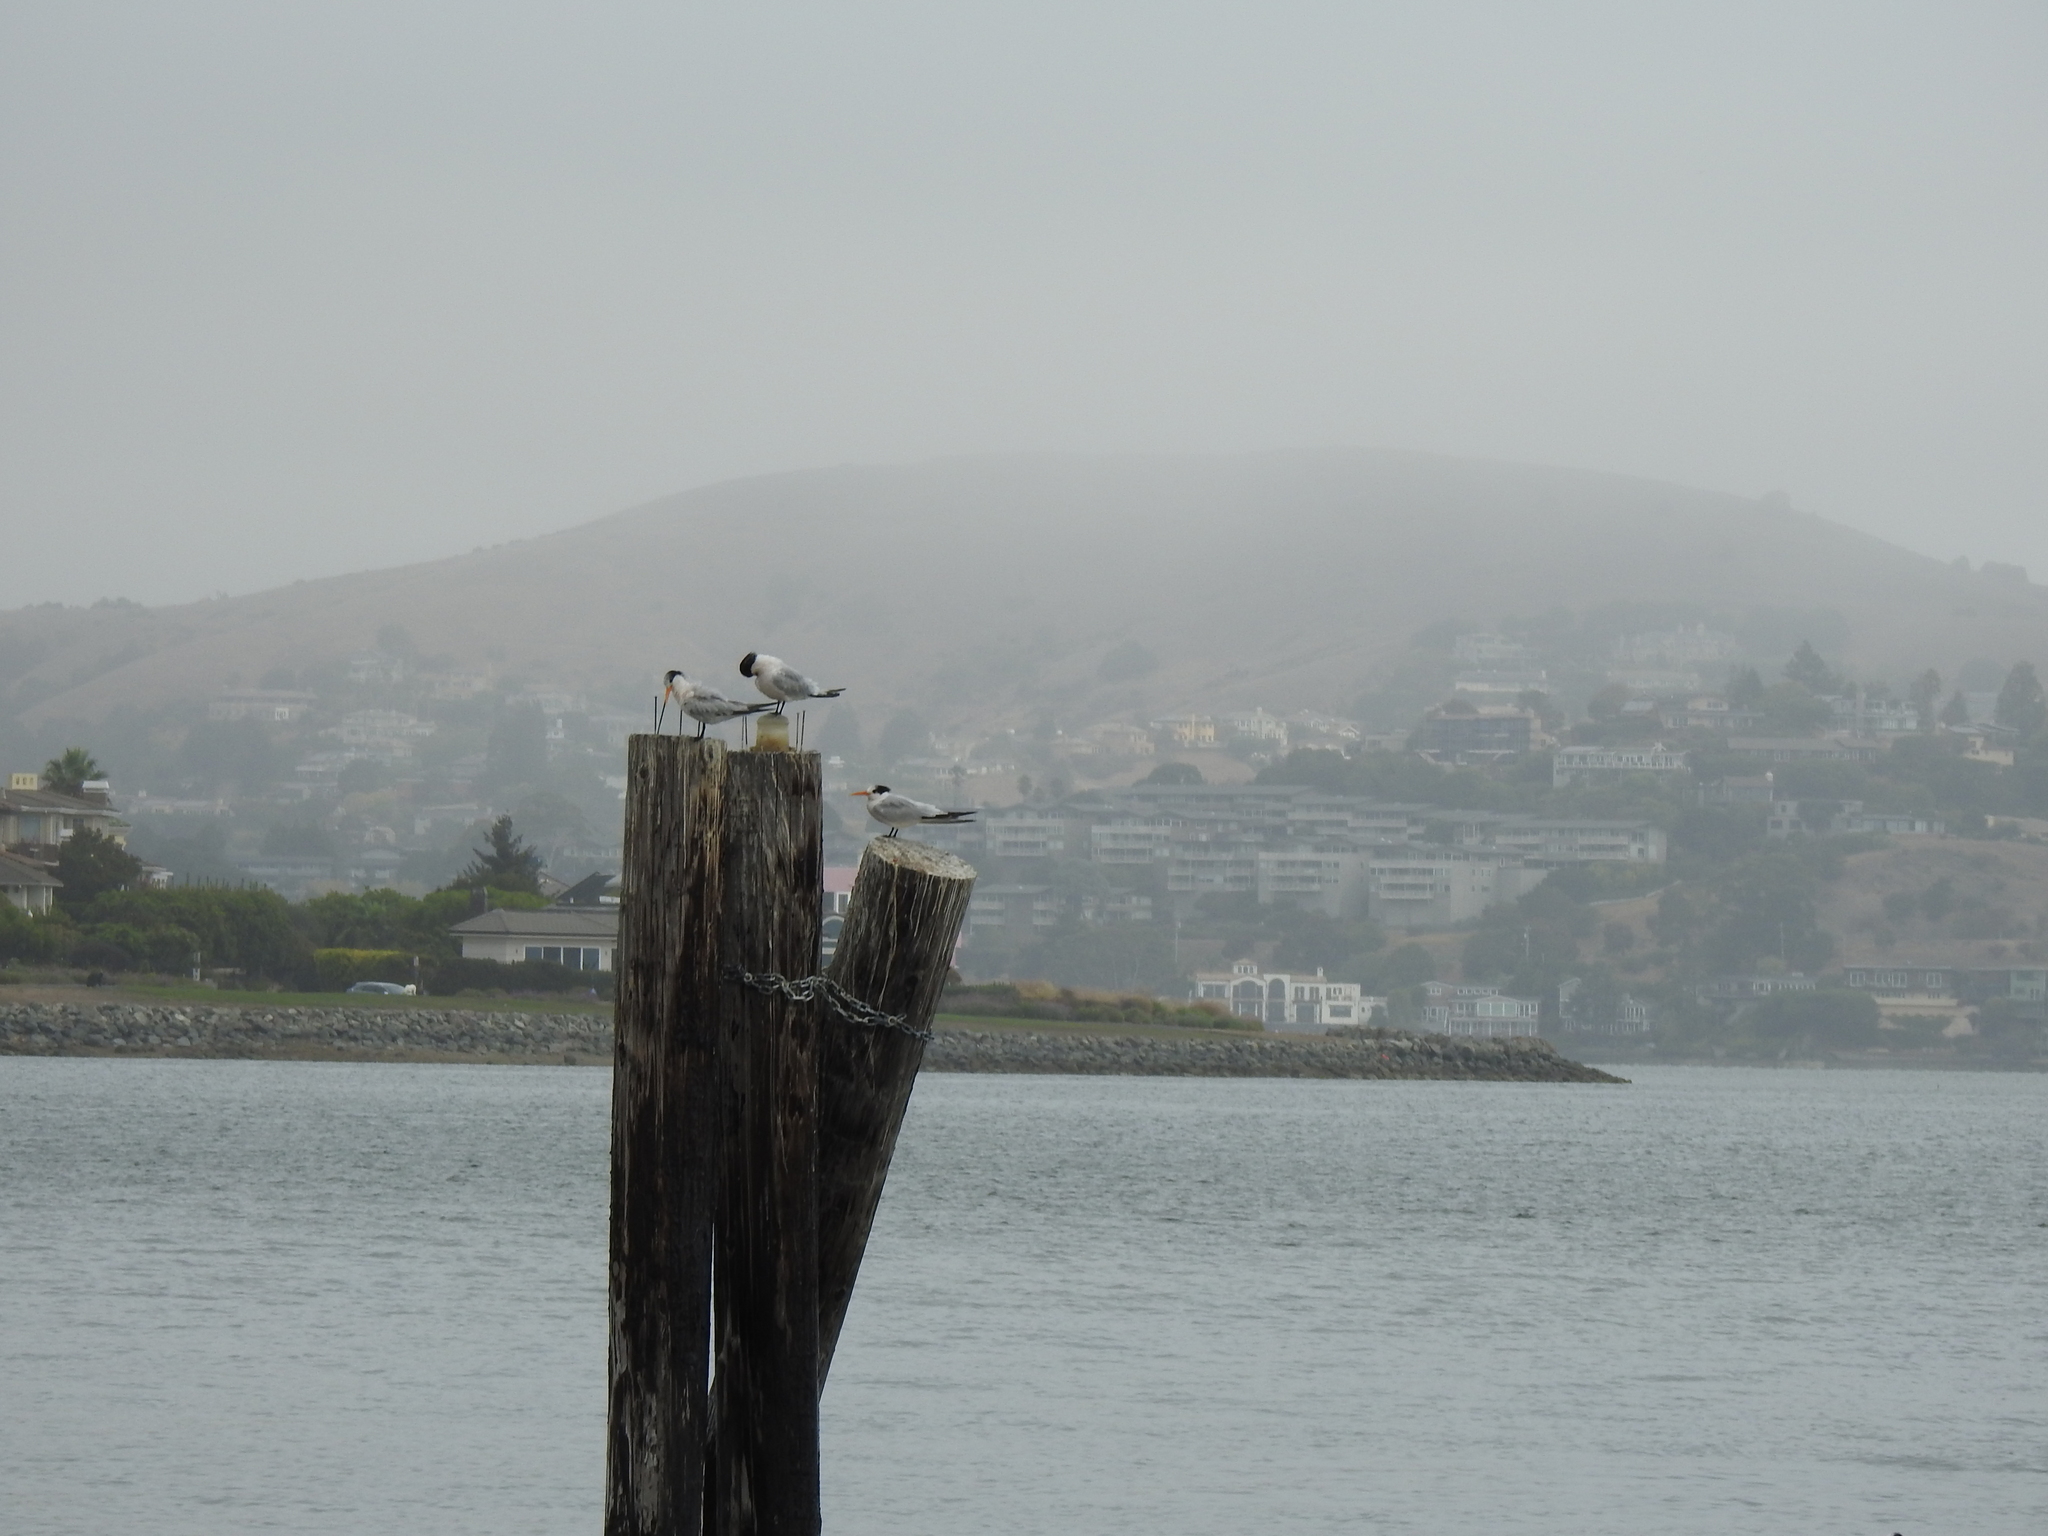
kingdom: Animalia
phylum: Chordata
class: Aves
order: Charadriiformes
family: Laridae
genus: Thalasseus
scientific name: Thalasseus elegans
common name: Elegant tern
